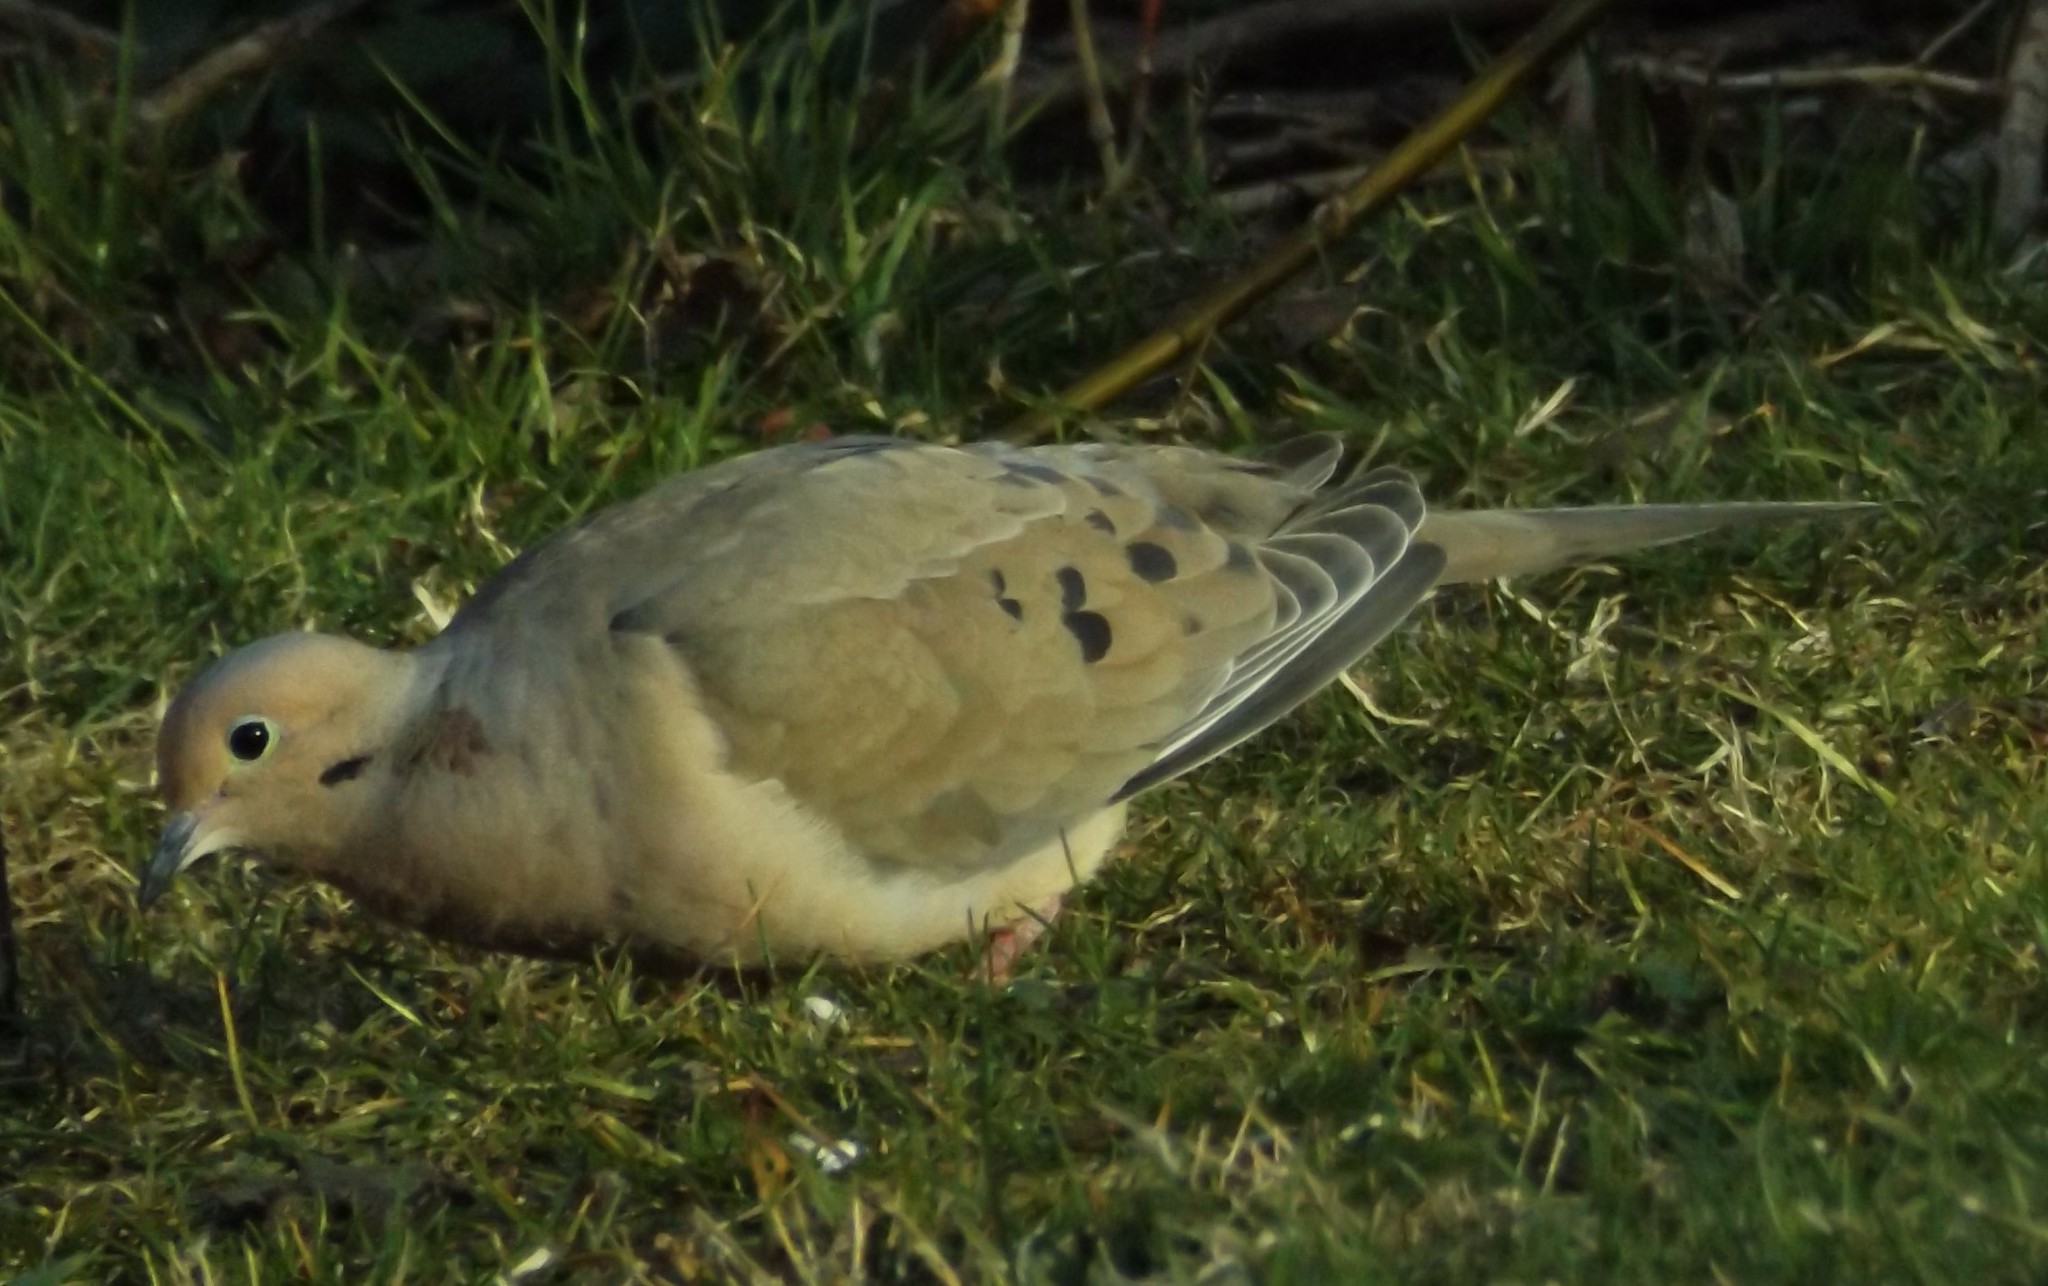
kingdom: Animalia
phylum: Chordata
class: Aves
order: Columbiformes
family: Columbidae
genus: Zenaida
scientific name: Zenaida macroura
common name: Mourning dove
